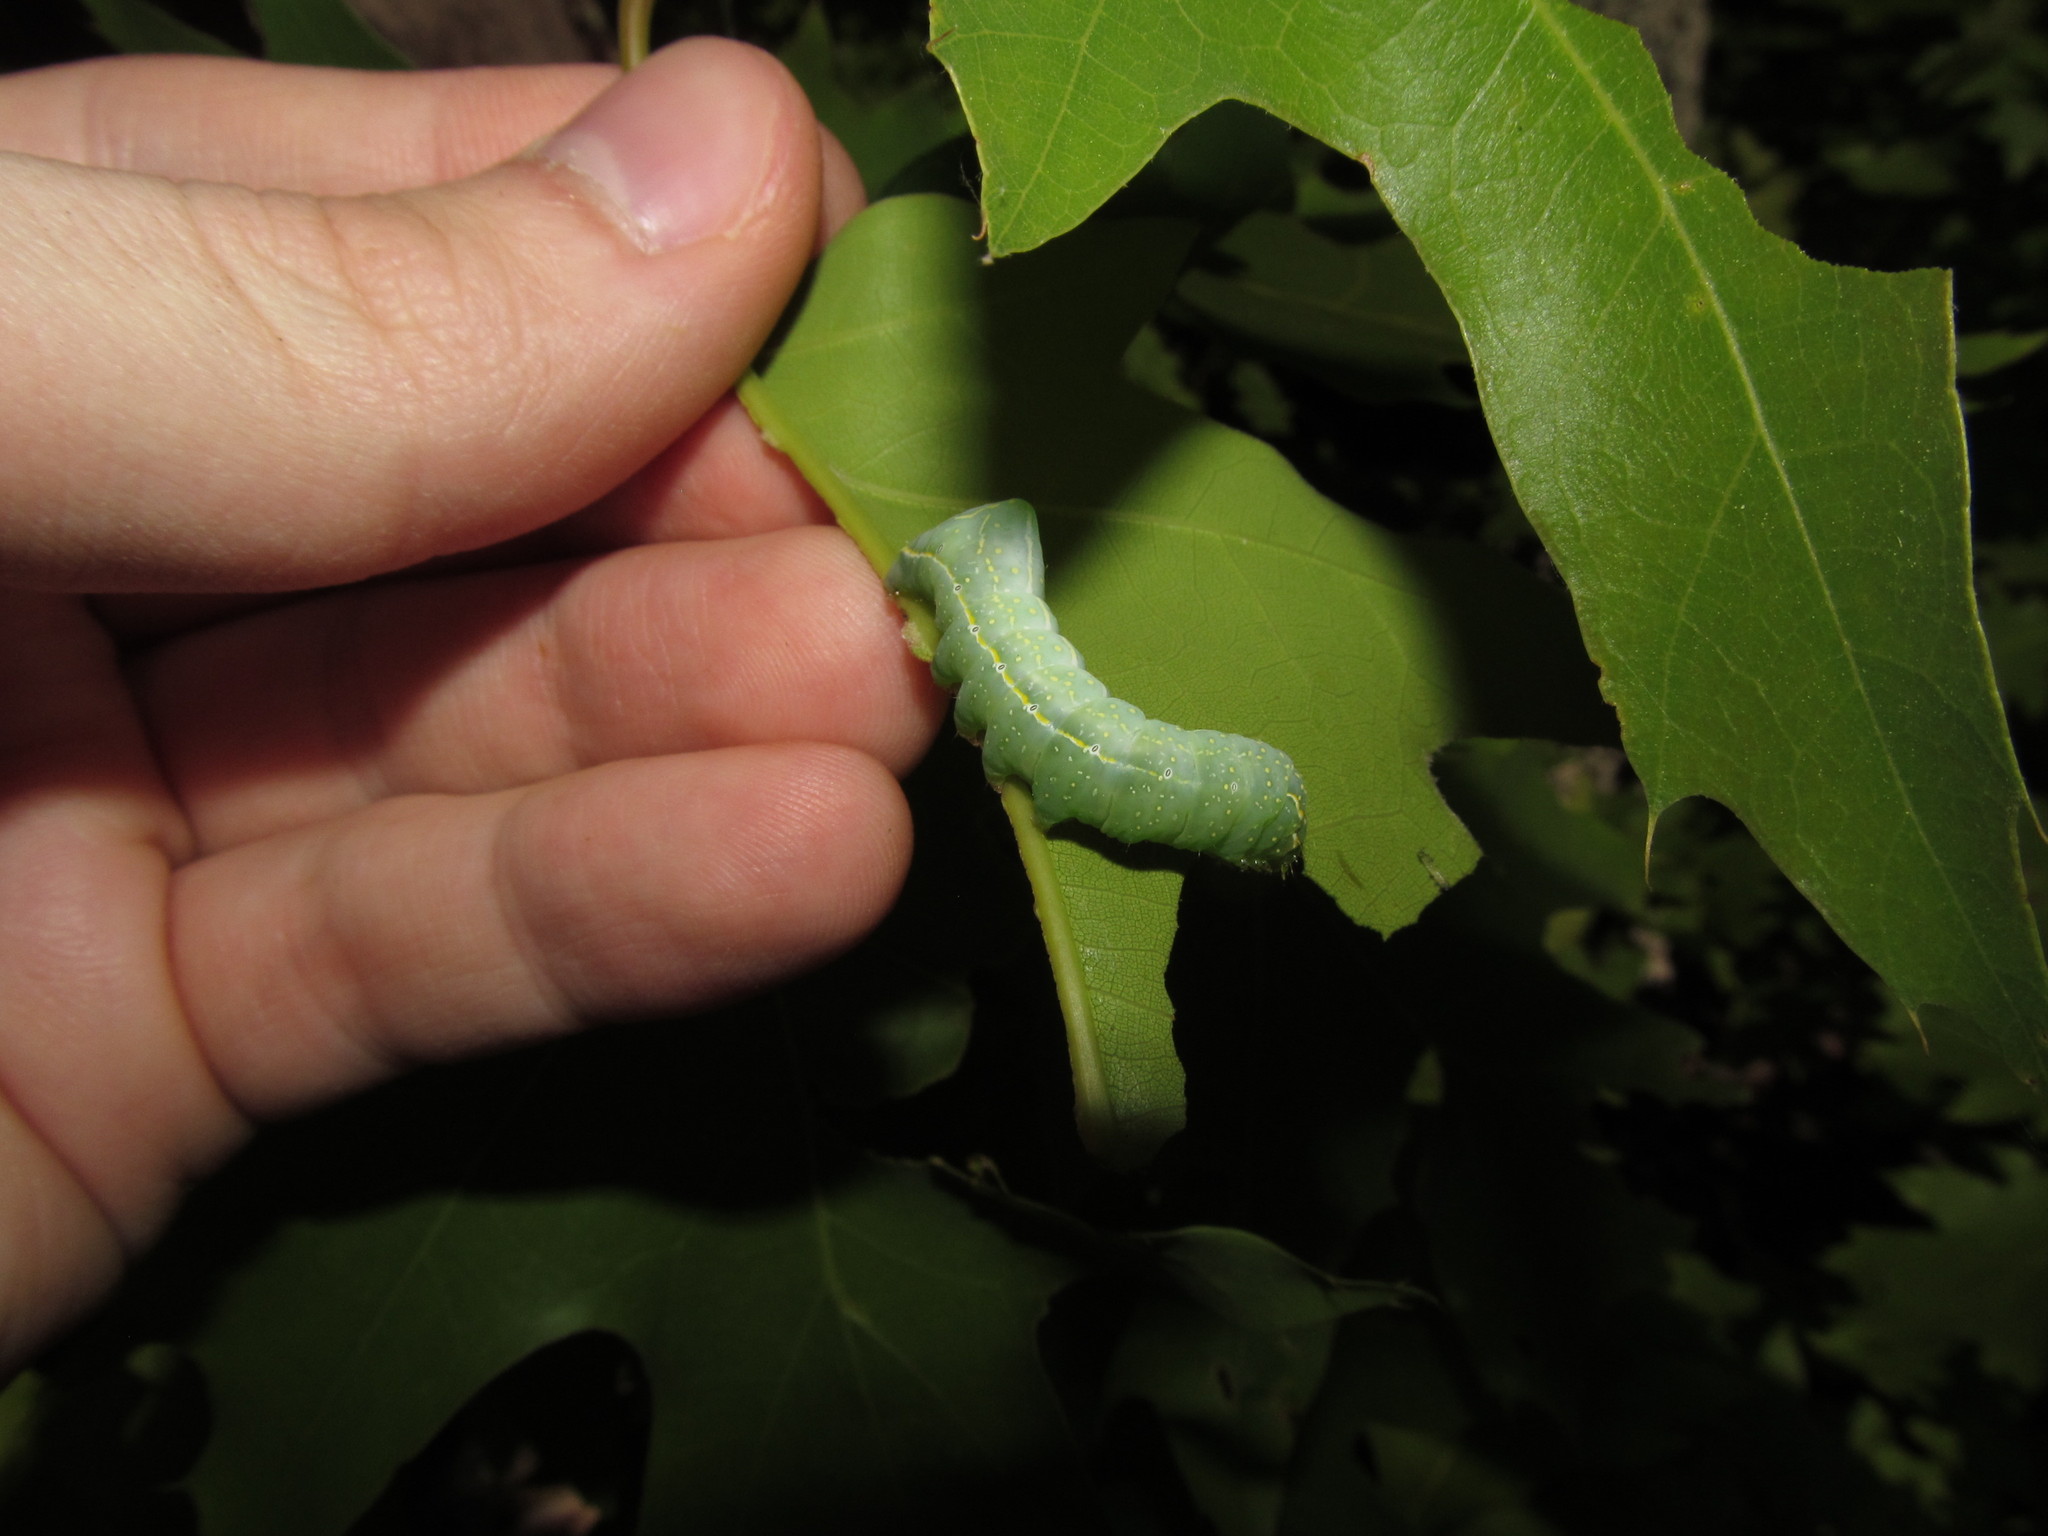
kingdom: Animalia
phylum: Arthropoda
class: Insecta
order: Lepidoptera
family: Noctuidae
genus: Amphipyra
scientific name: Amphipyra pyramidoides
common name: American copper underwing
